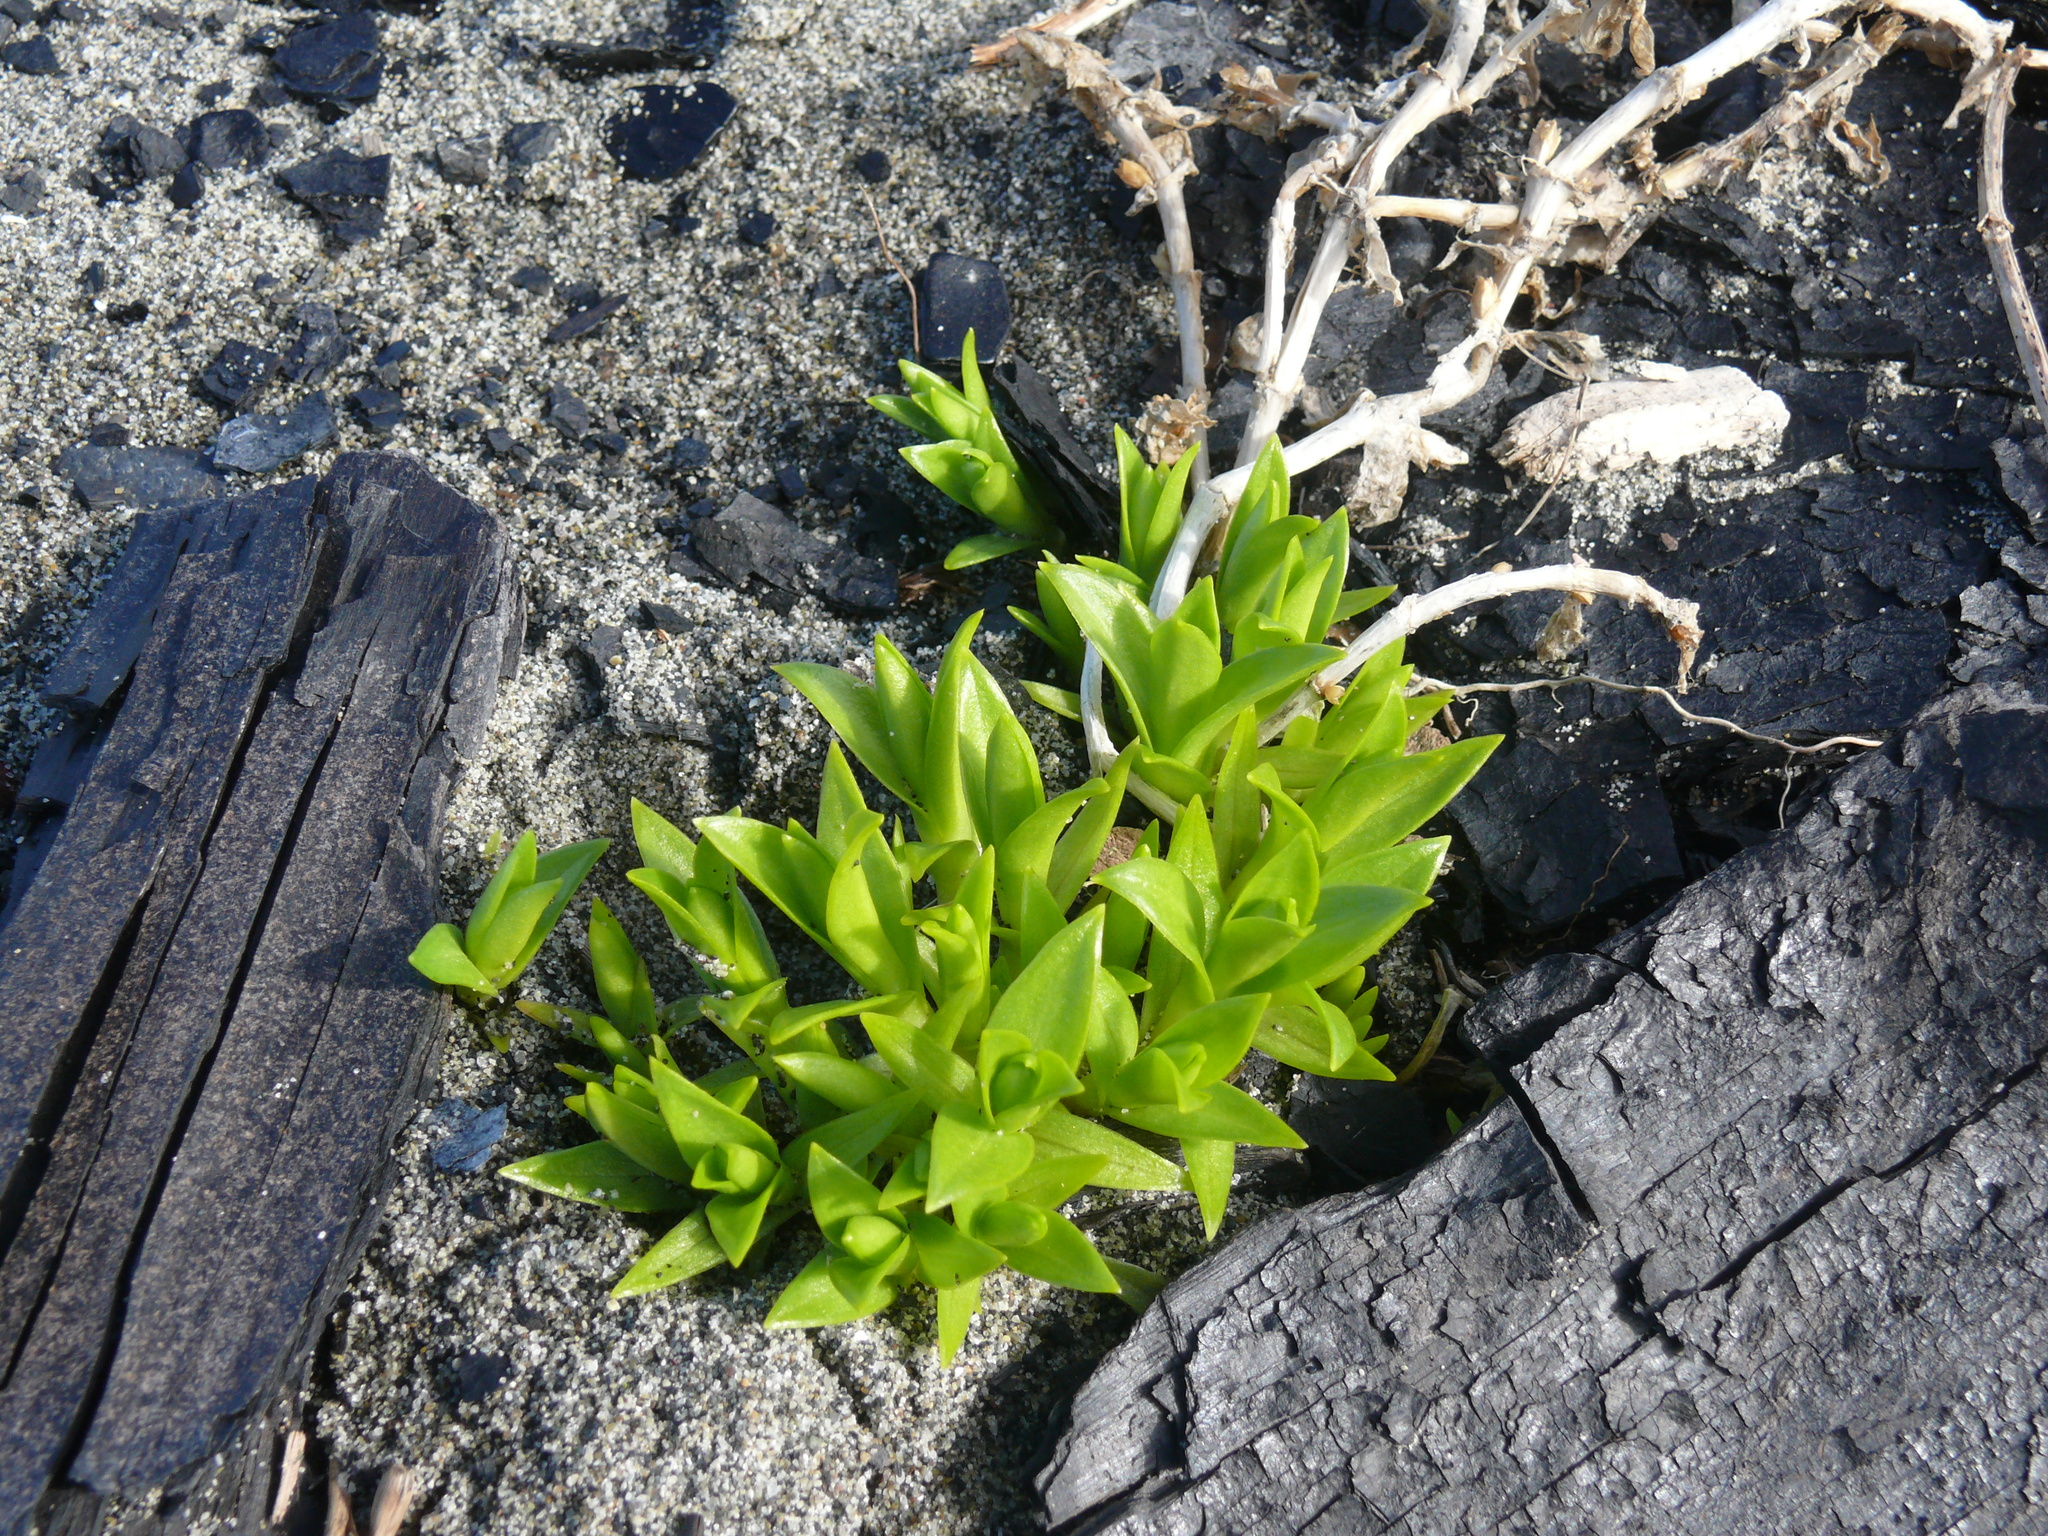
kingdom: Plantae
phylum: Tracheophyta
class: Magnoliopsida
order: Caryophyllales
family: Caryophyllaceae
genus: Honckenya
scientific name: Honckenya peploides
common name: Sea sandwort
